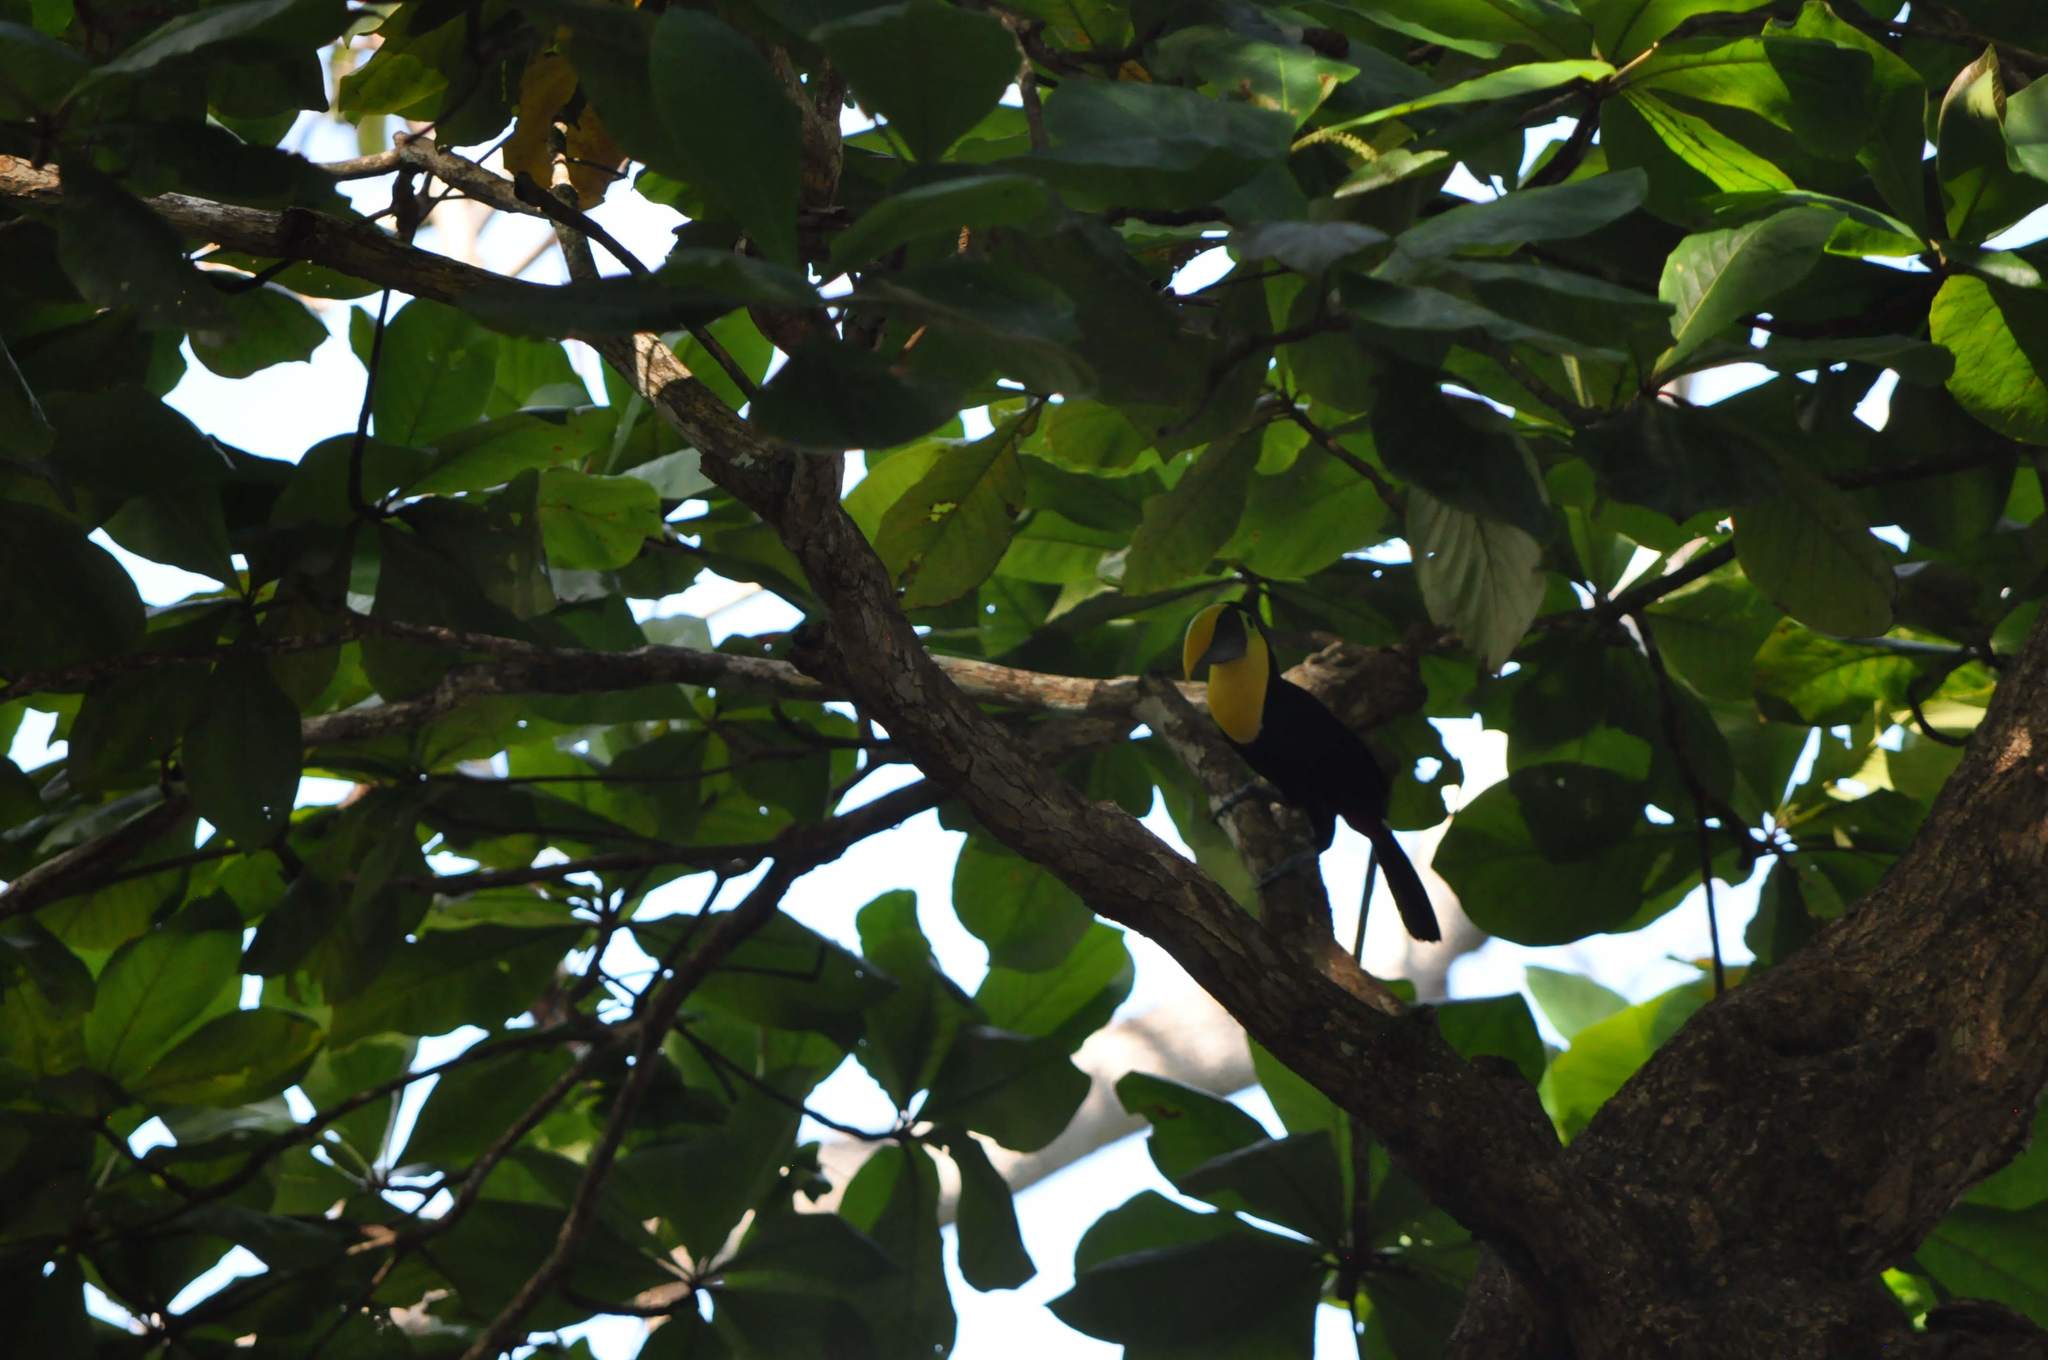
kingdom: Animalia
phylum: Chordata
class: Aves
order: Piciformes
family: Ramphastidae
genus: Ramphastos
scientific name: Ramphastos ambiguus
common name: Yellow-throated toucan
